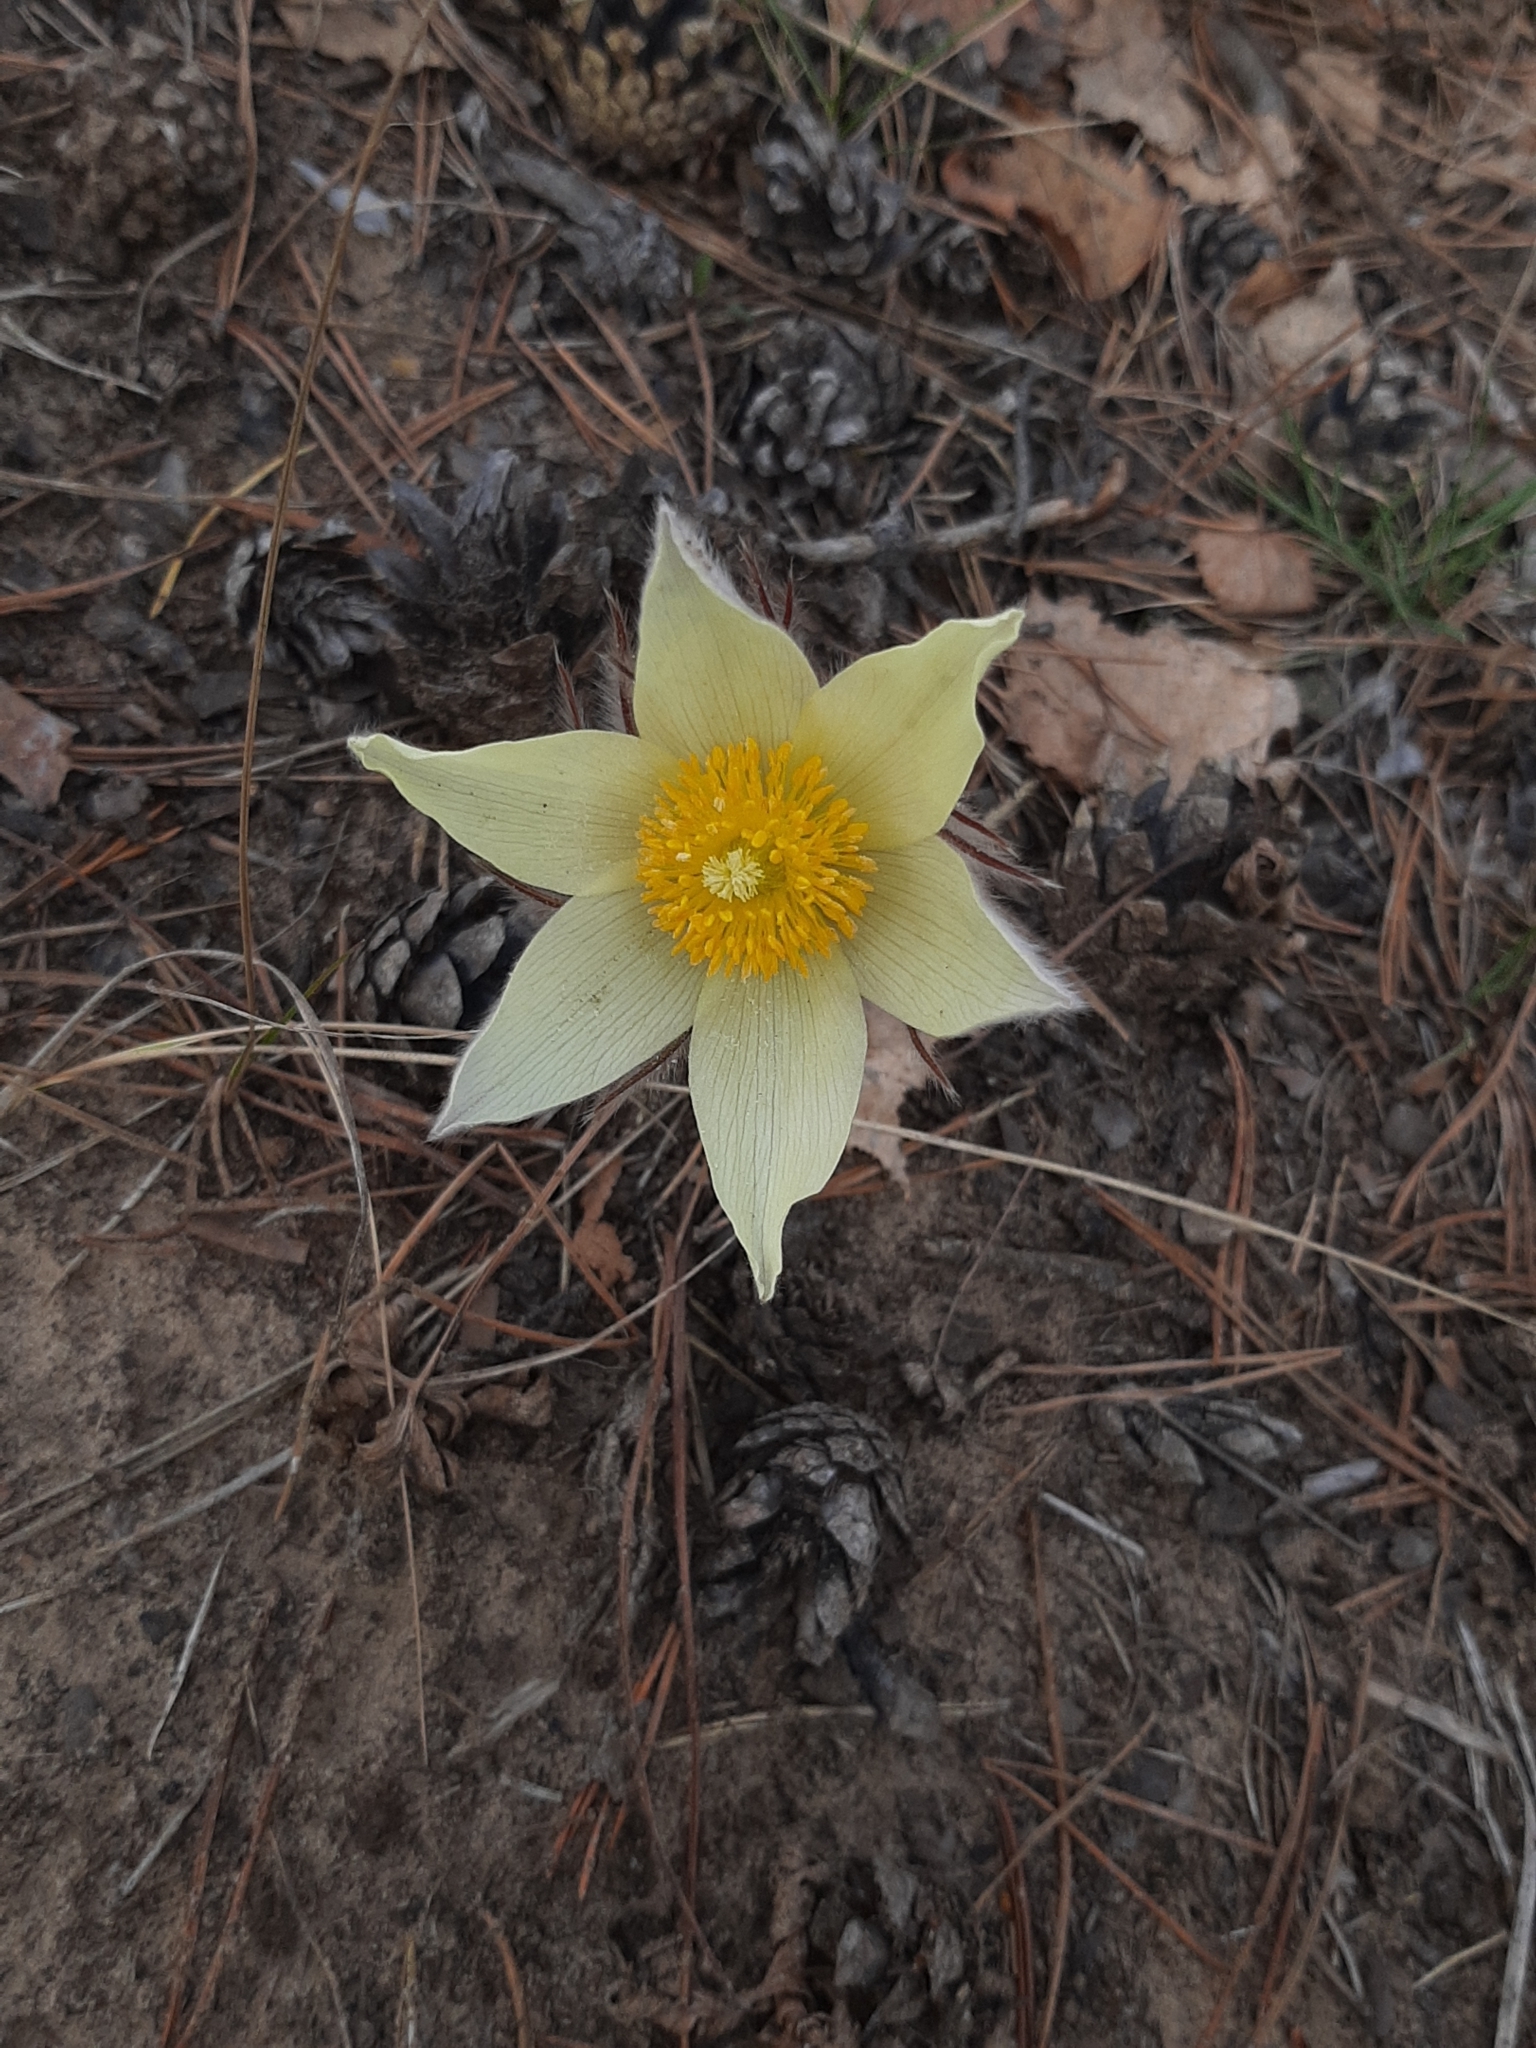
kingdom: Plantae
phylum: Tracheophyta
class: Magnoliopsida
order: Ranunculales
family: Ranunculaceae
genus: Pulsatilla
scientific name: Pulsatilla patens
